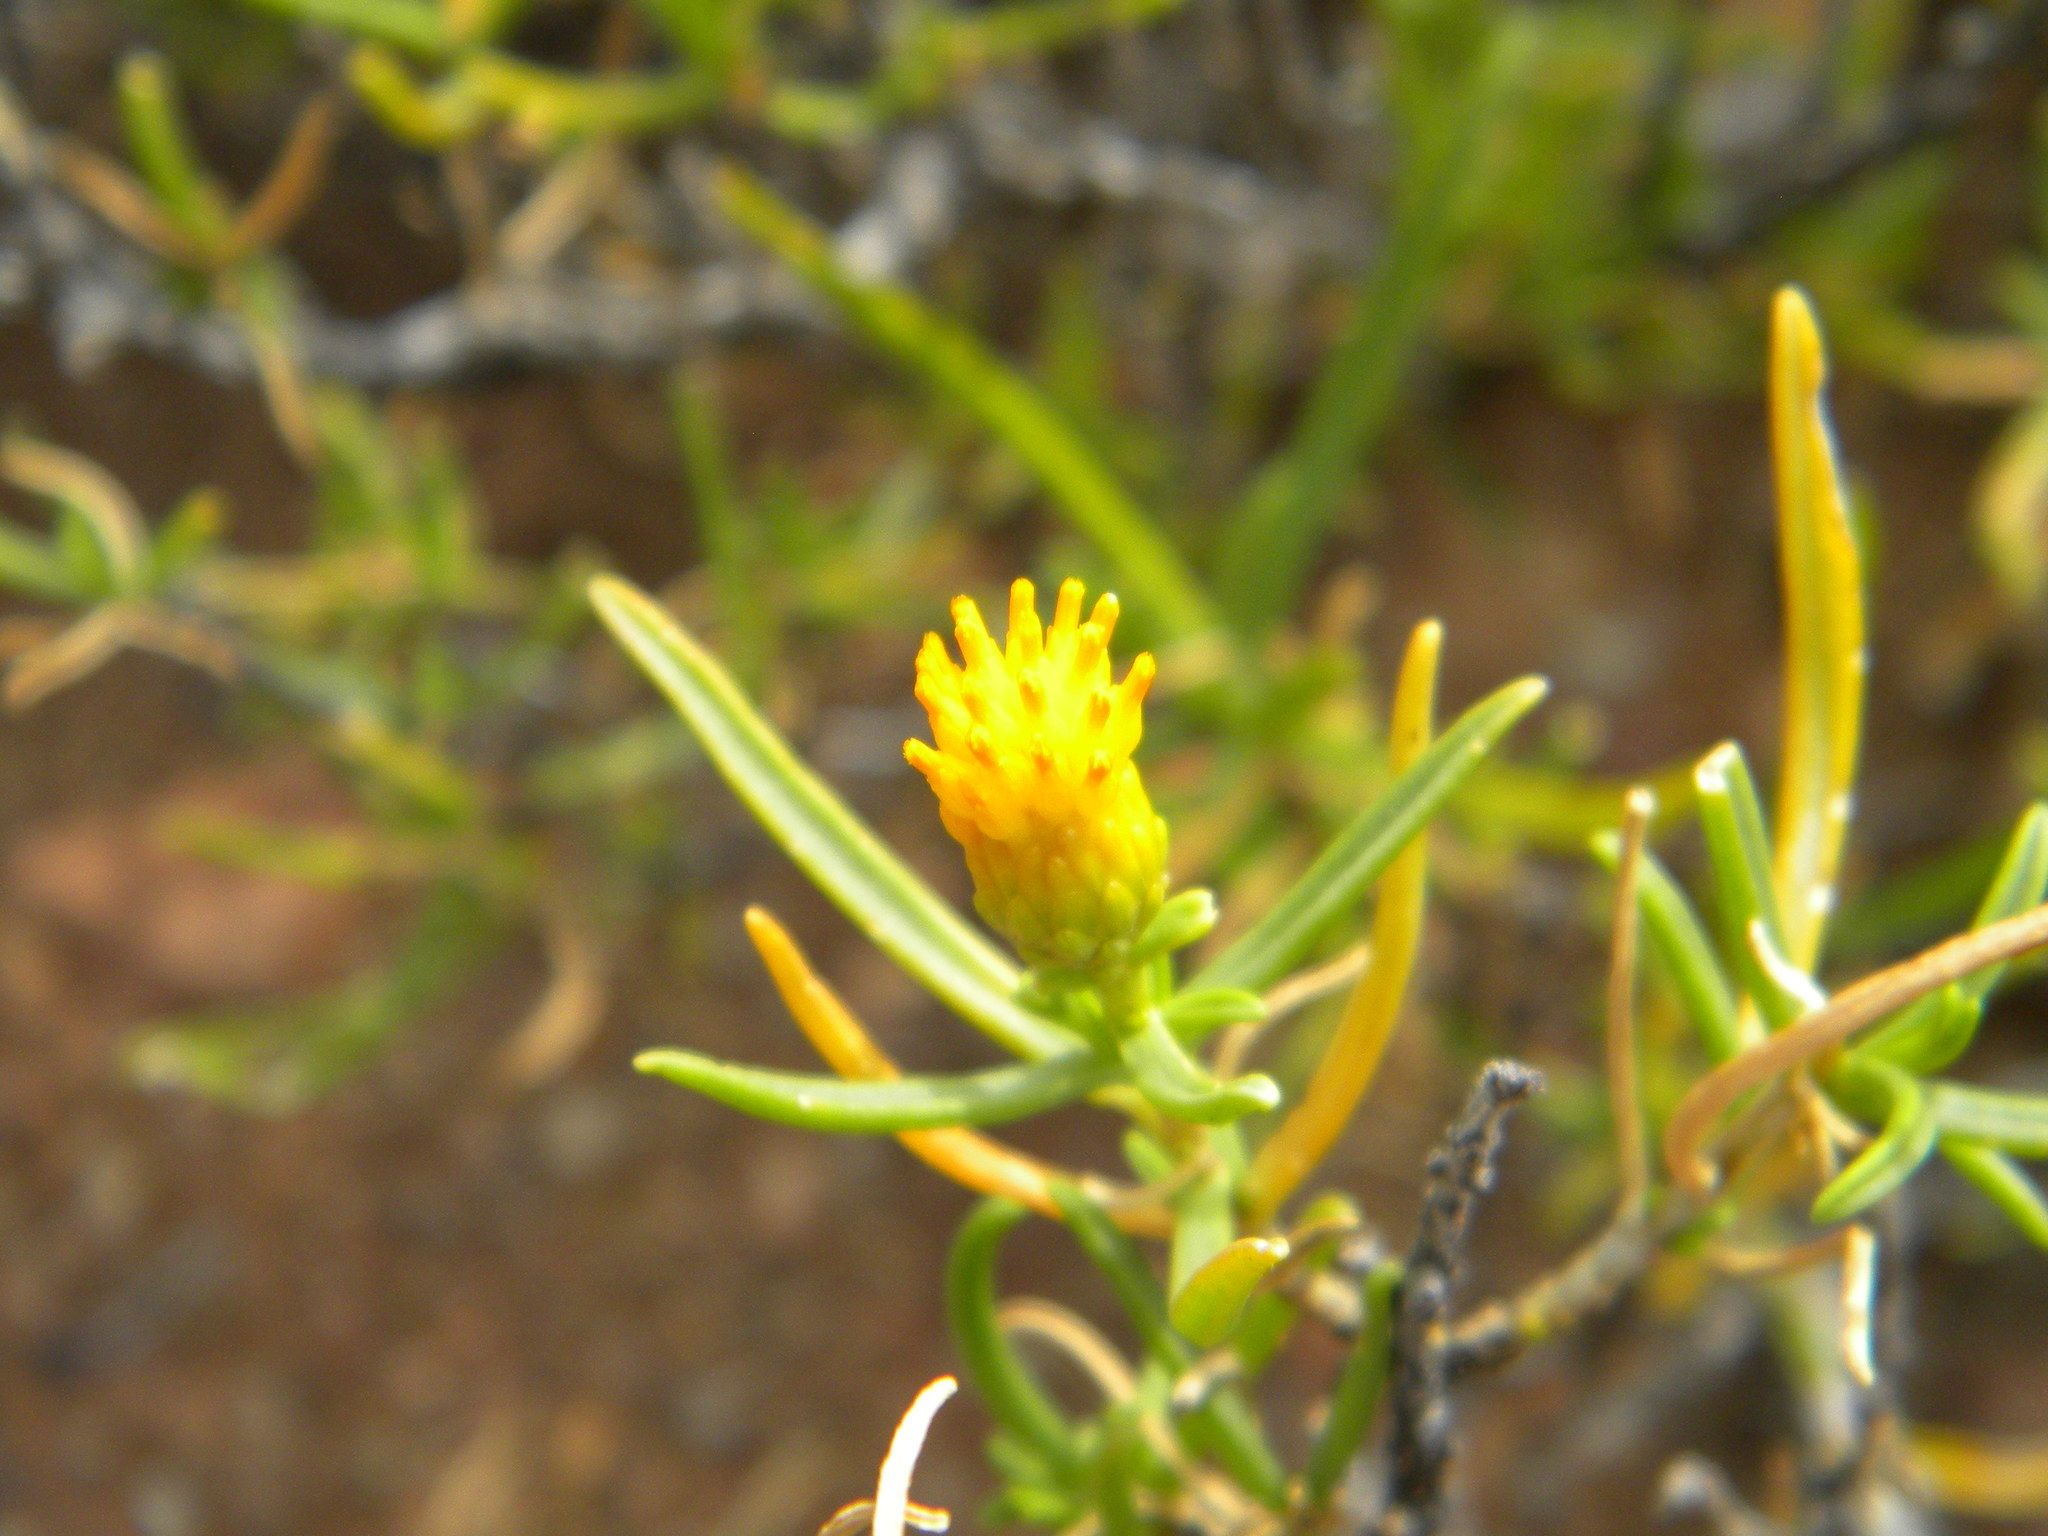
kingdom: Plantae
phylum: Tracheophyta
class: Magnoliopsida
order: Asterales
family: Asteraceae
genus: Pteronia
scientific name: Pteronia pallens
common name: Scholtzbush
